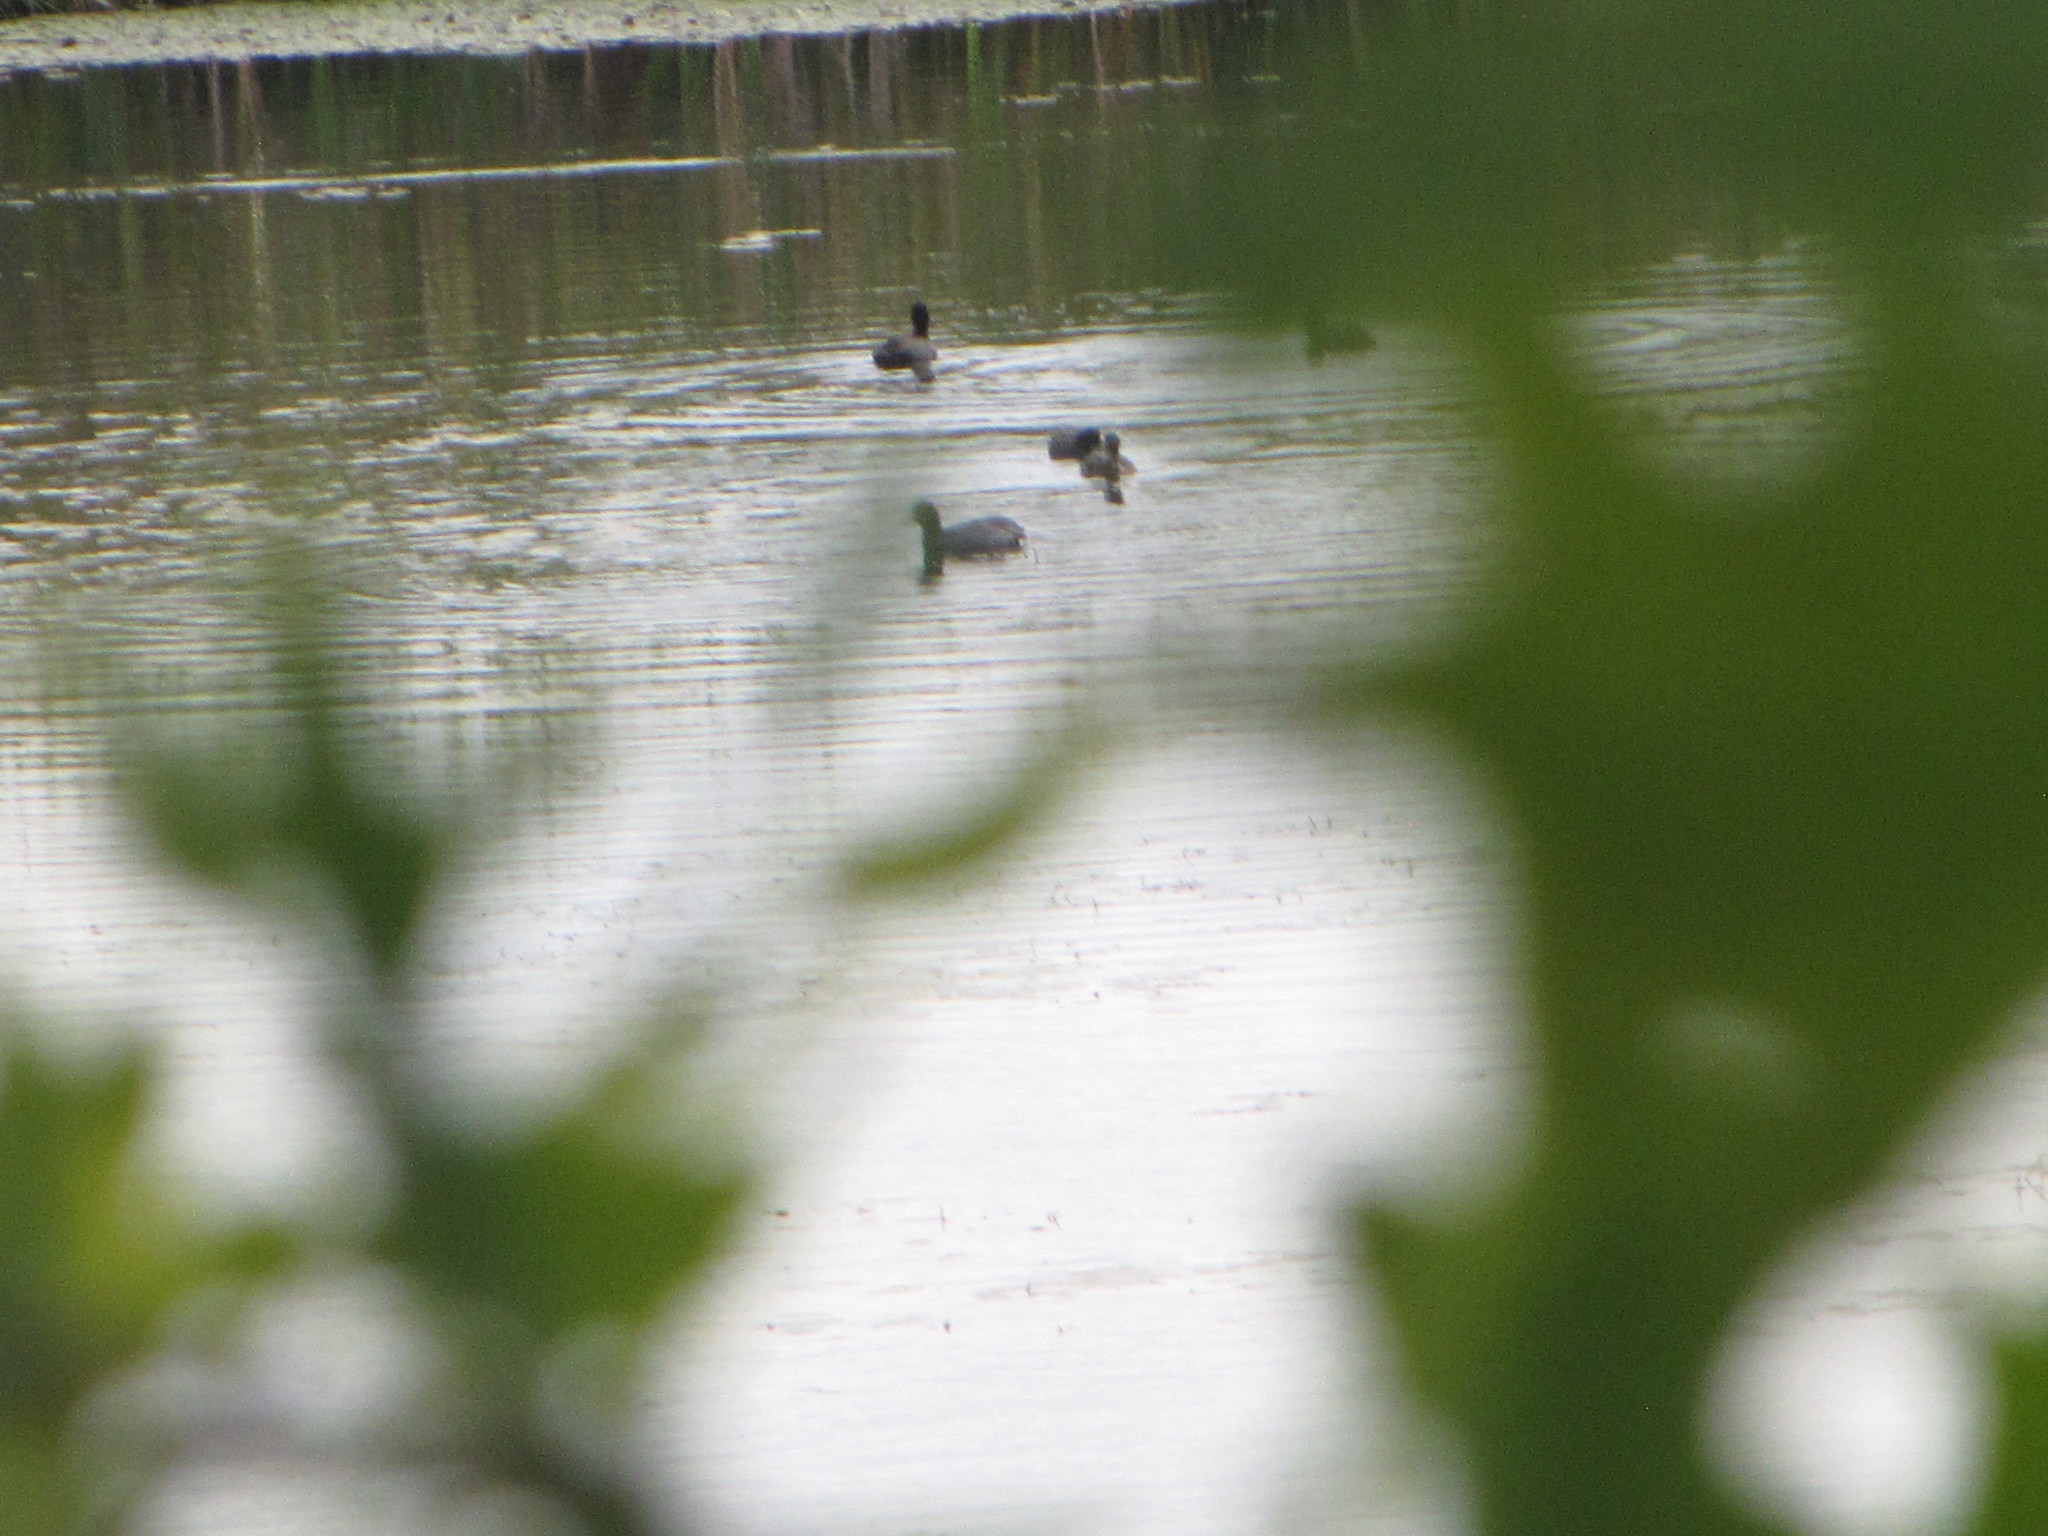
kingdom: Animalia
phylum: Chordata
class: Aves
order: Gruiformes
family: Rallidae
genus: Fulica
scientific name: Fulica americana
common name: American coot
